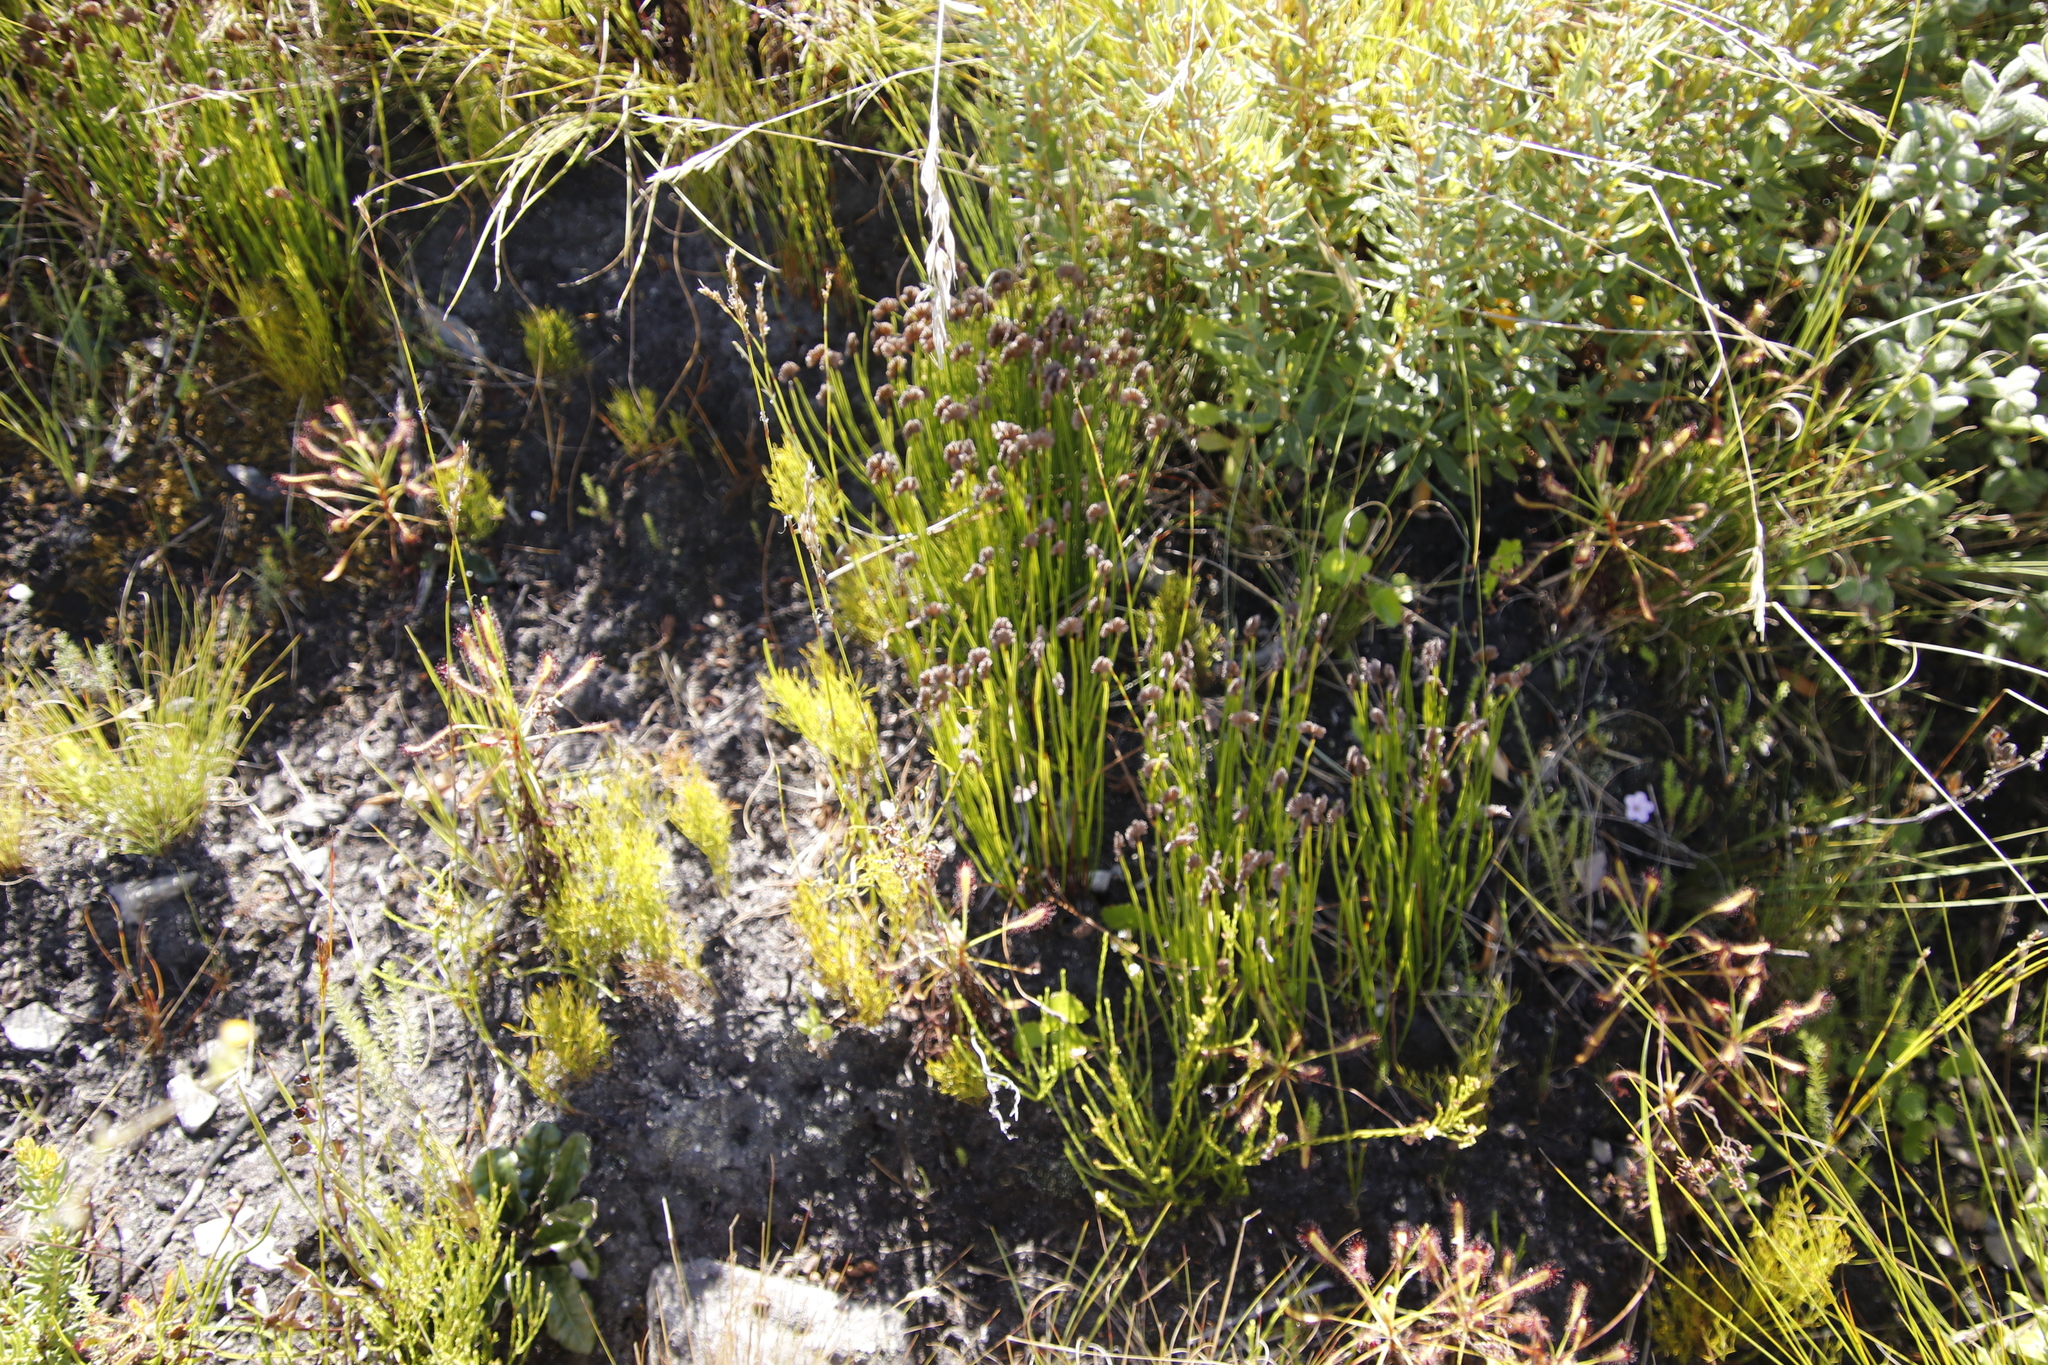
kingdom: Plantae
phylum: Tracheophyta
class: Polypodiopsida
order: Schizaeales
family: Schizaeaceae
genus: Schizaea
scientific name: Schizaea pectinata
